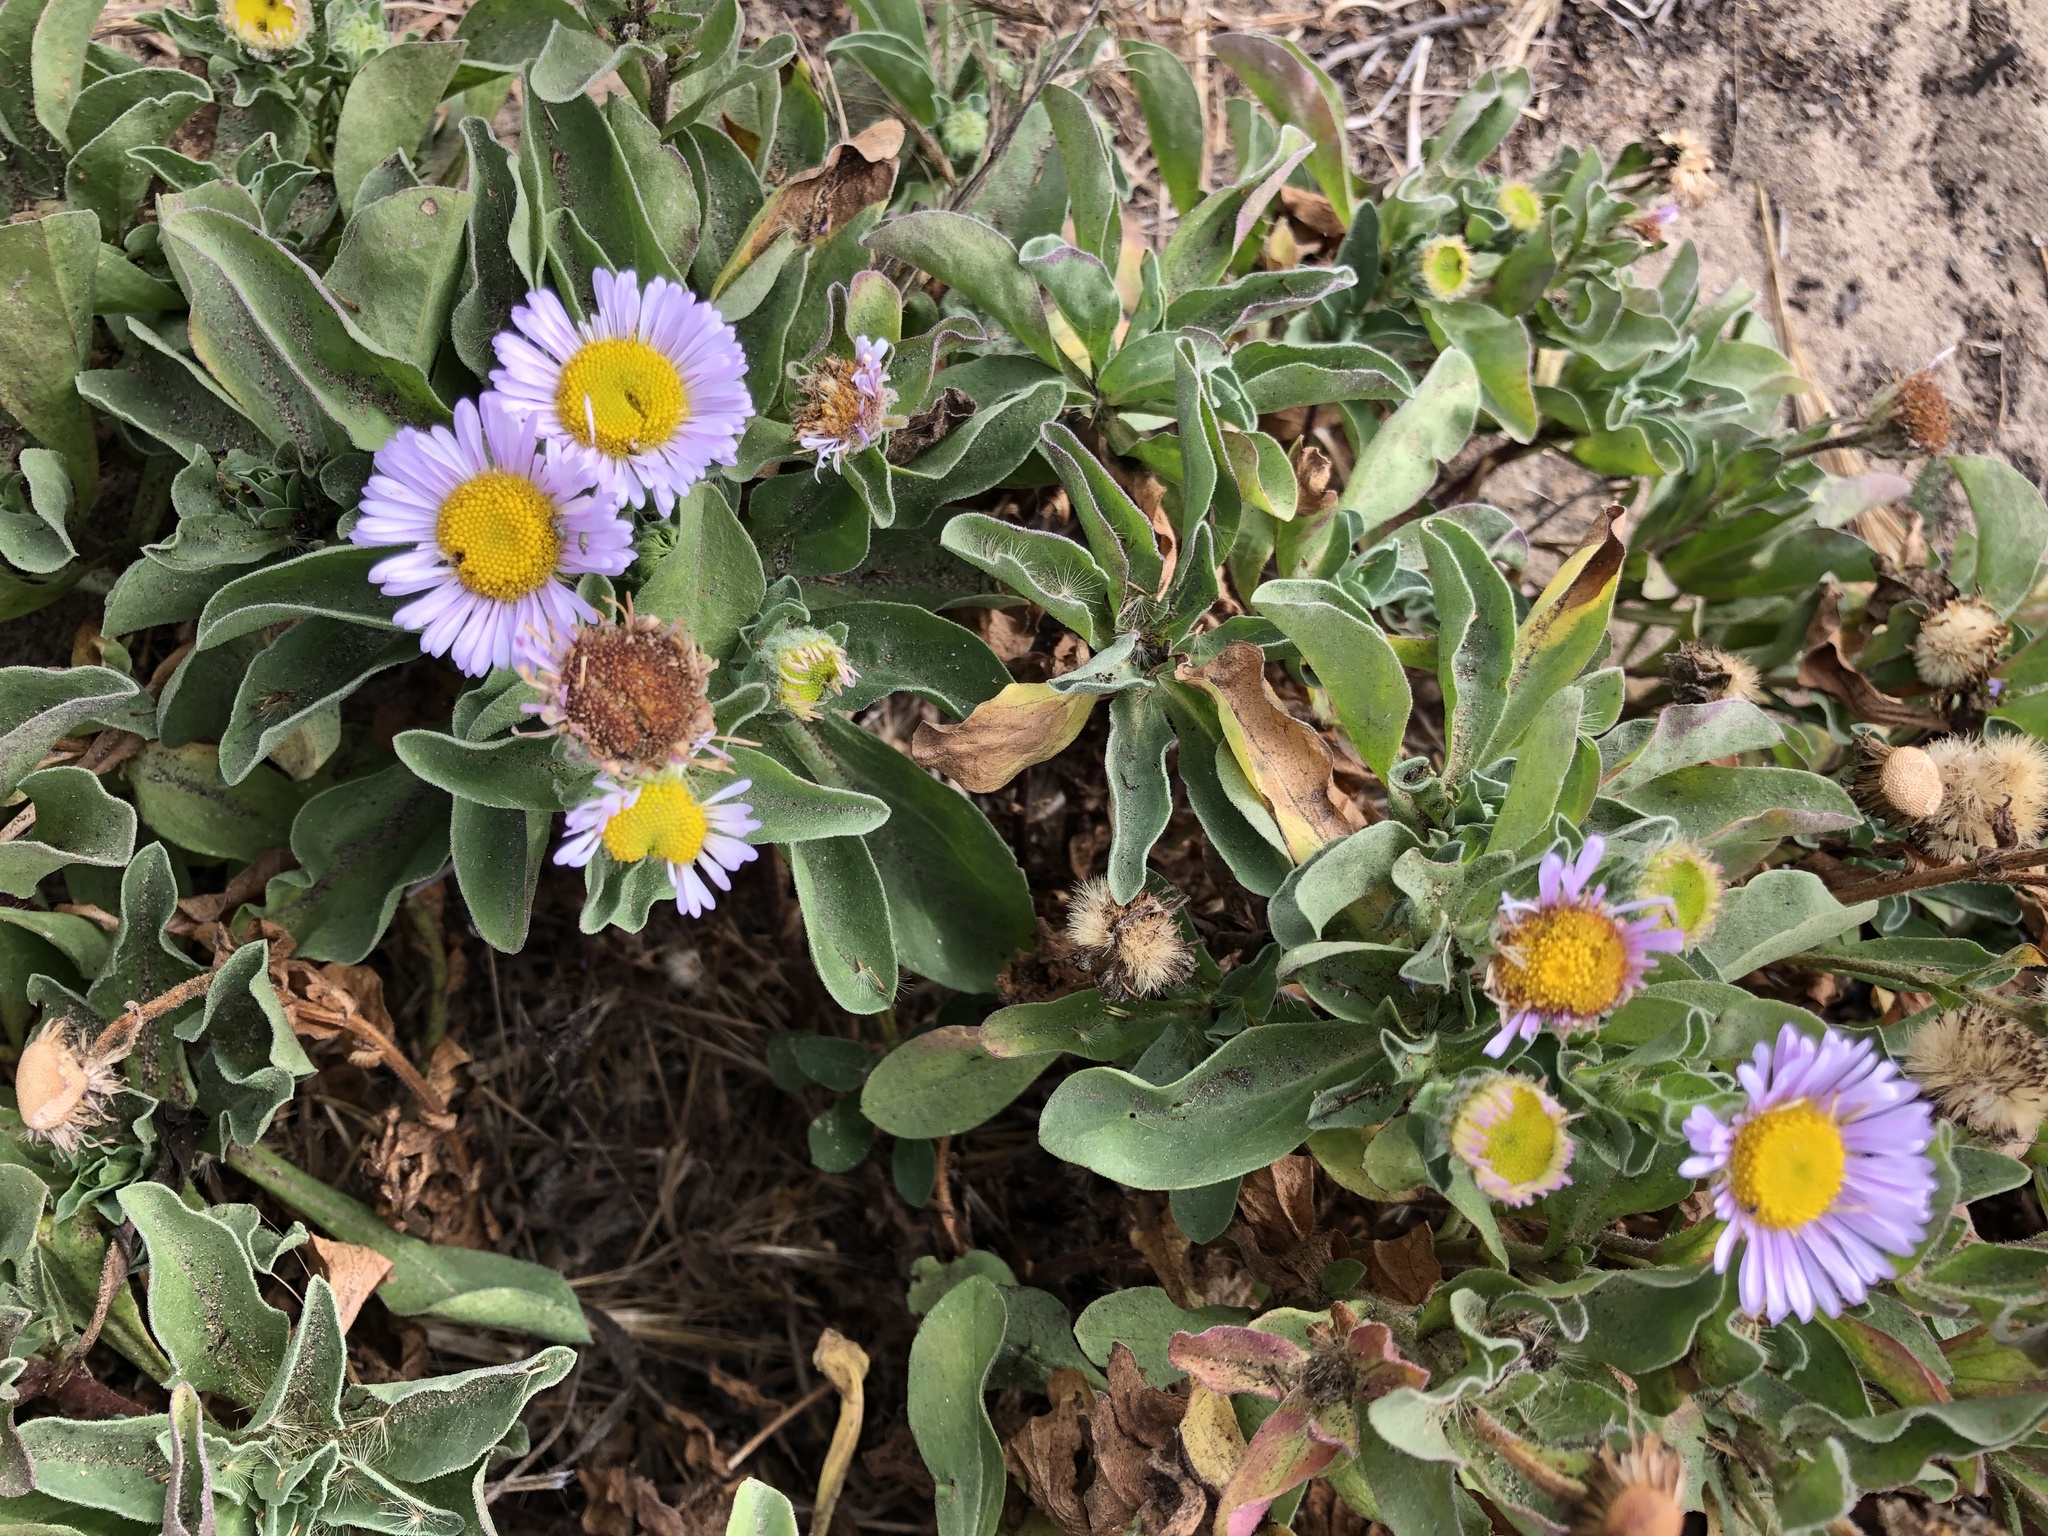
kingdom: Plantae
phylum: Tracheophyta
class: Magnoliopsida
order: Asterales
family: Asteraceae
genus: Erigeron
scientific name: Erigeron glaucus
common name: Seaside daisy
